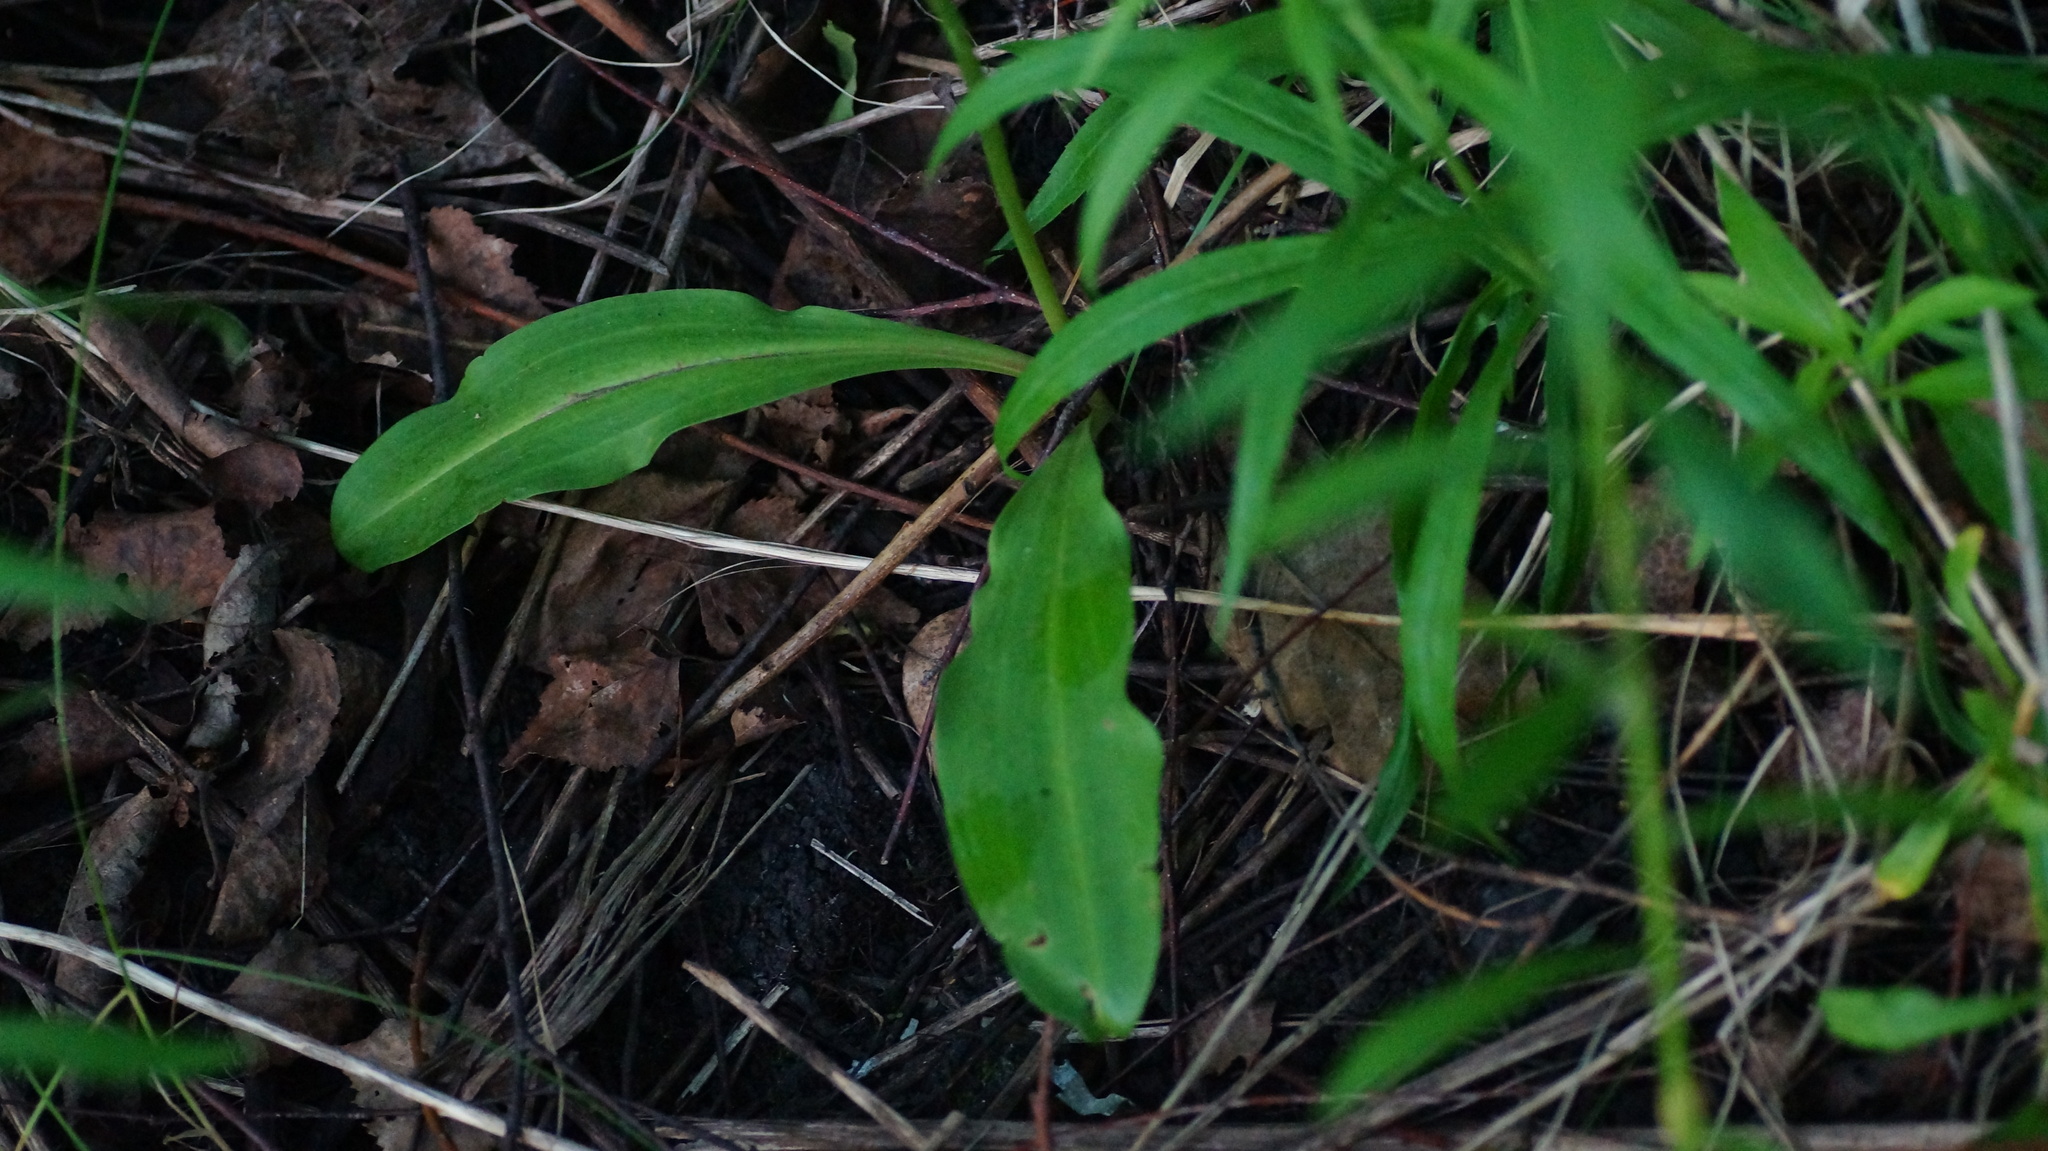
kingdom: Plantae
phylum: Tracheophyta
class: Liliopsida
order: Asparagales
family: Orchidaceae
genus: Platanthera
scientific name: Platanthera bifolia
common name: Lesser butterfly-orchid
